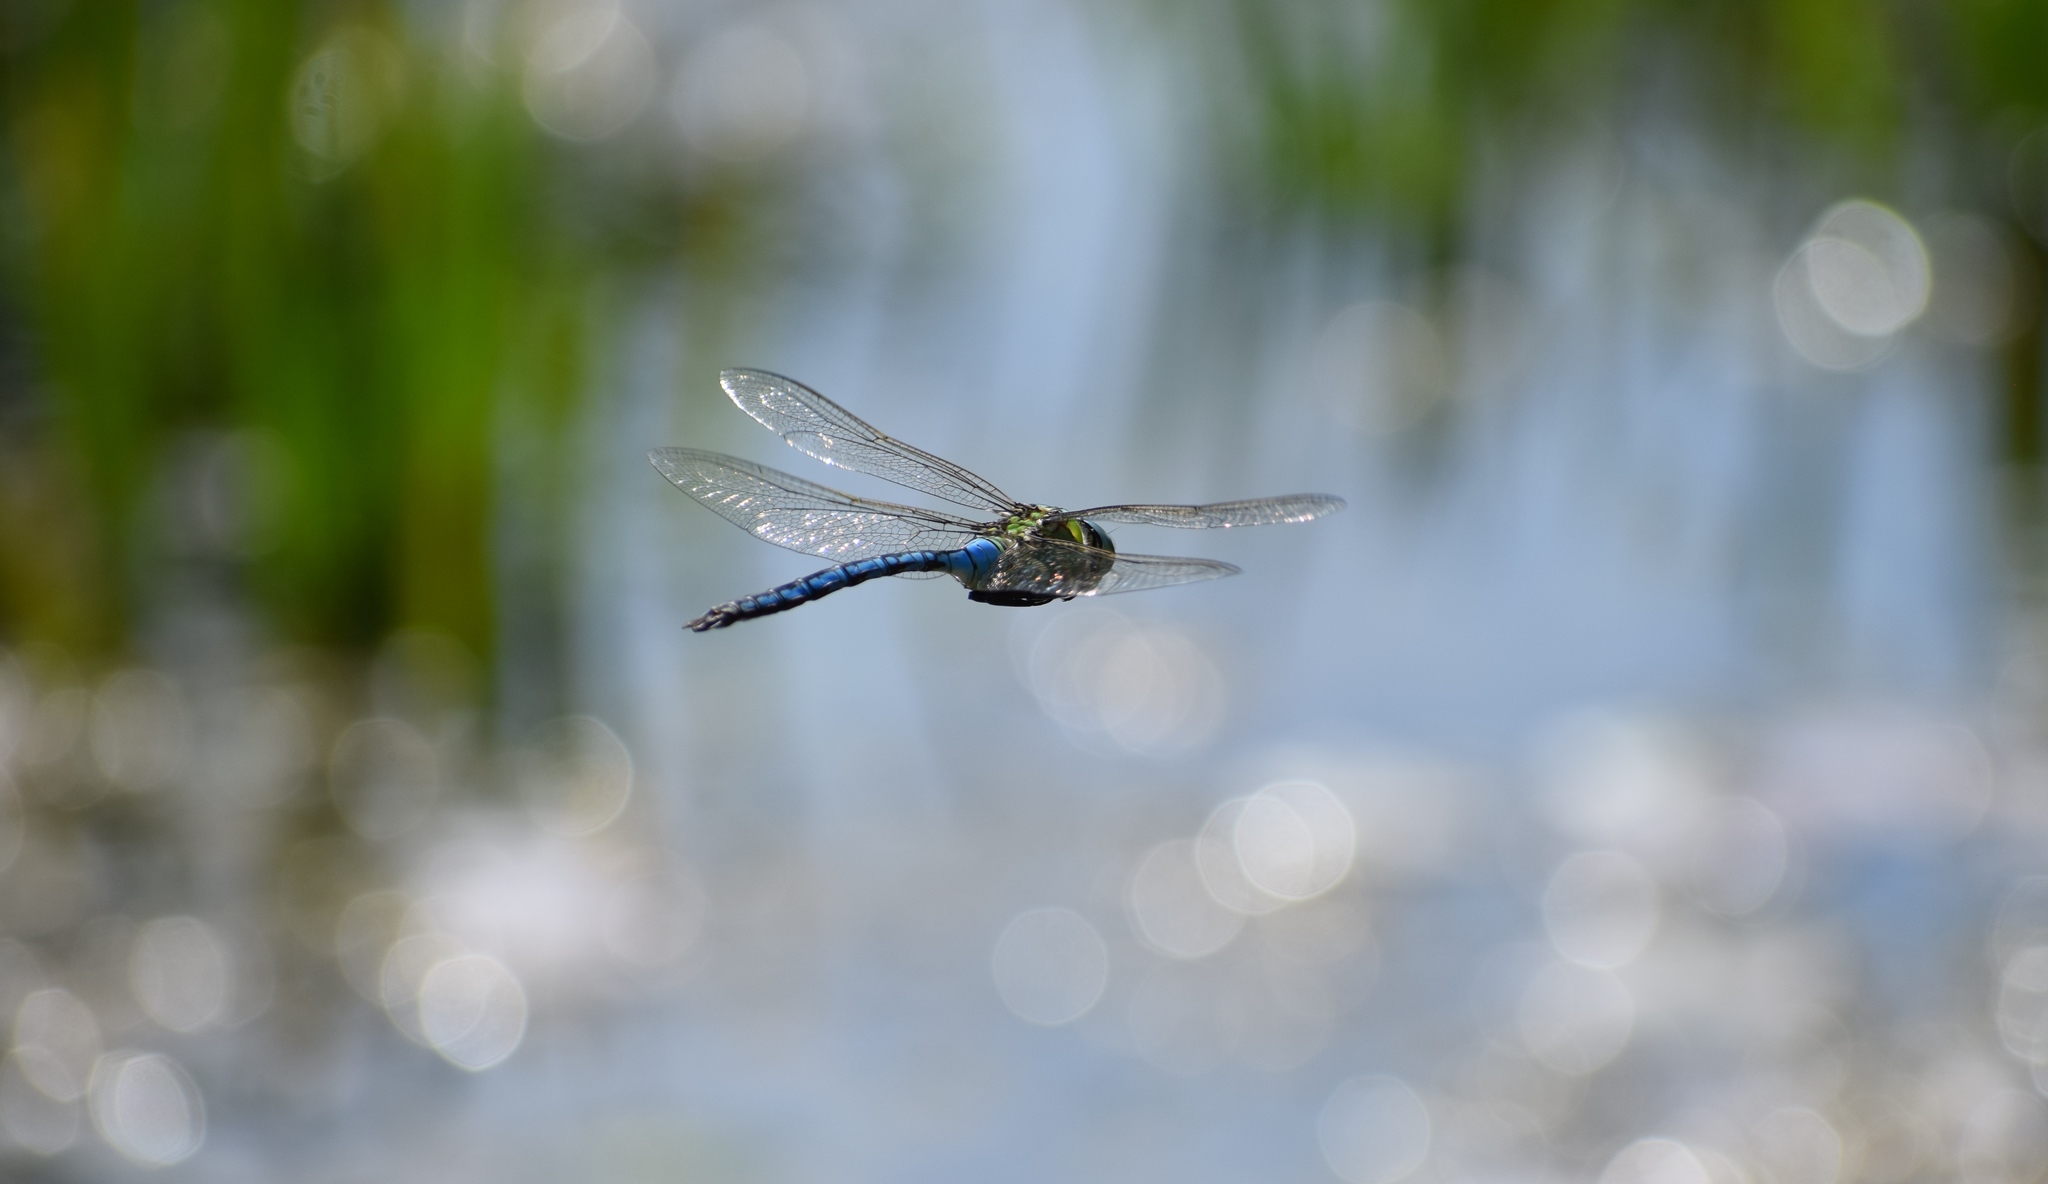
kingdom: Animalia
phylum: Arthropoda
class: Insecta
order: Odonata
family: Aeshnidae
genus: Anax
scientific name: Anax imperator
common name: Emperor dragonfly
